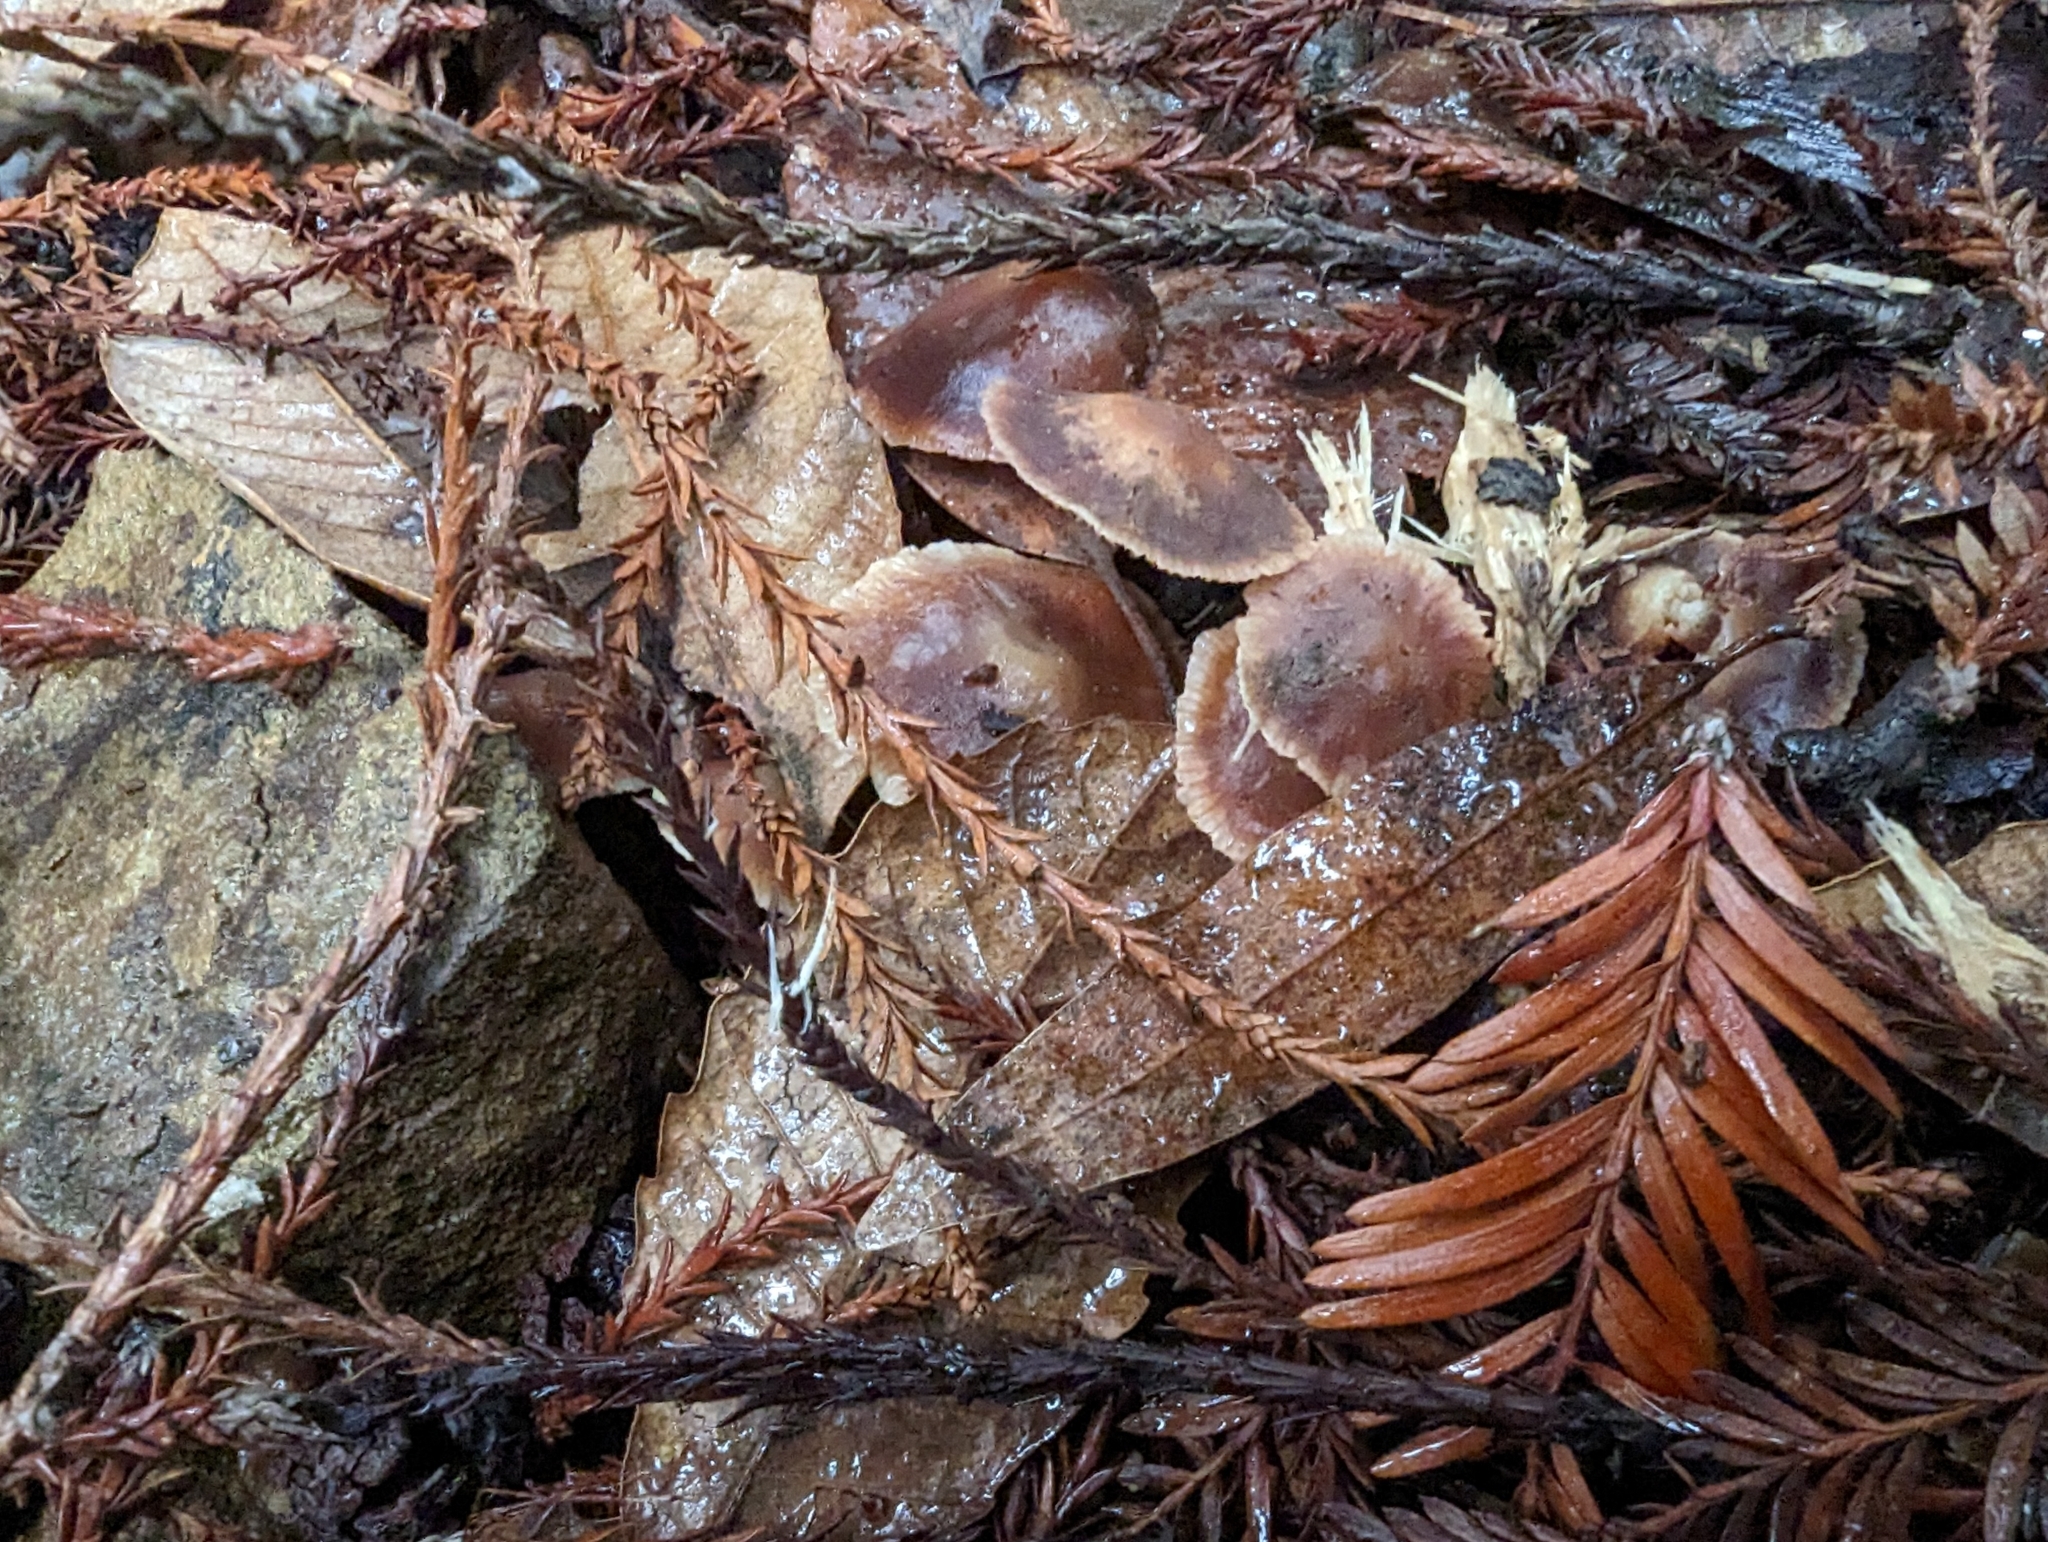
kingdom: Fungi
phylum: Basidiomycota
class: Agaricomycetes
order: Agaricales
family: Omphalotaceae
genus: Gymnopus
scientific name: Gymnopus brassicolens
